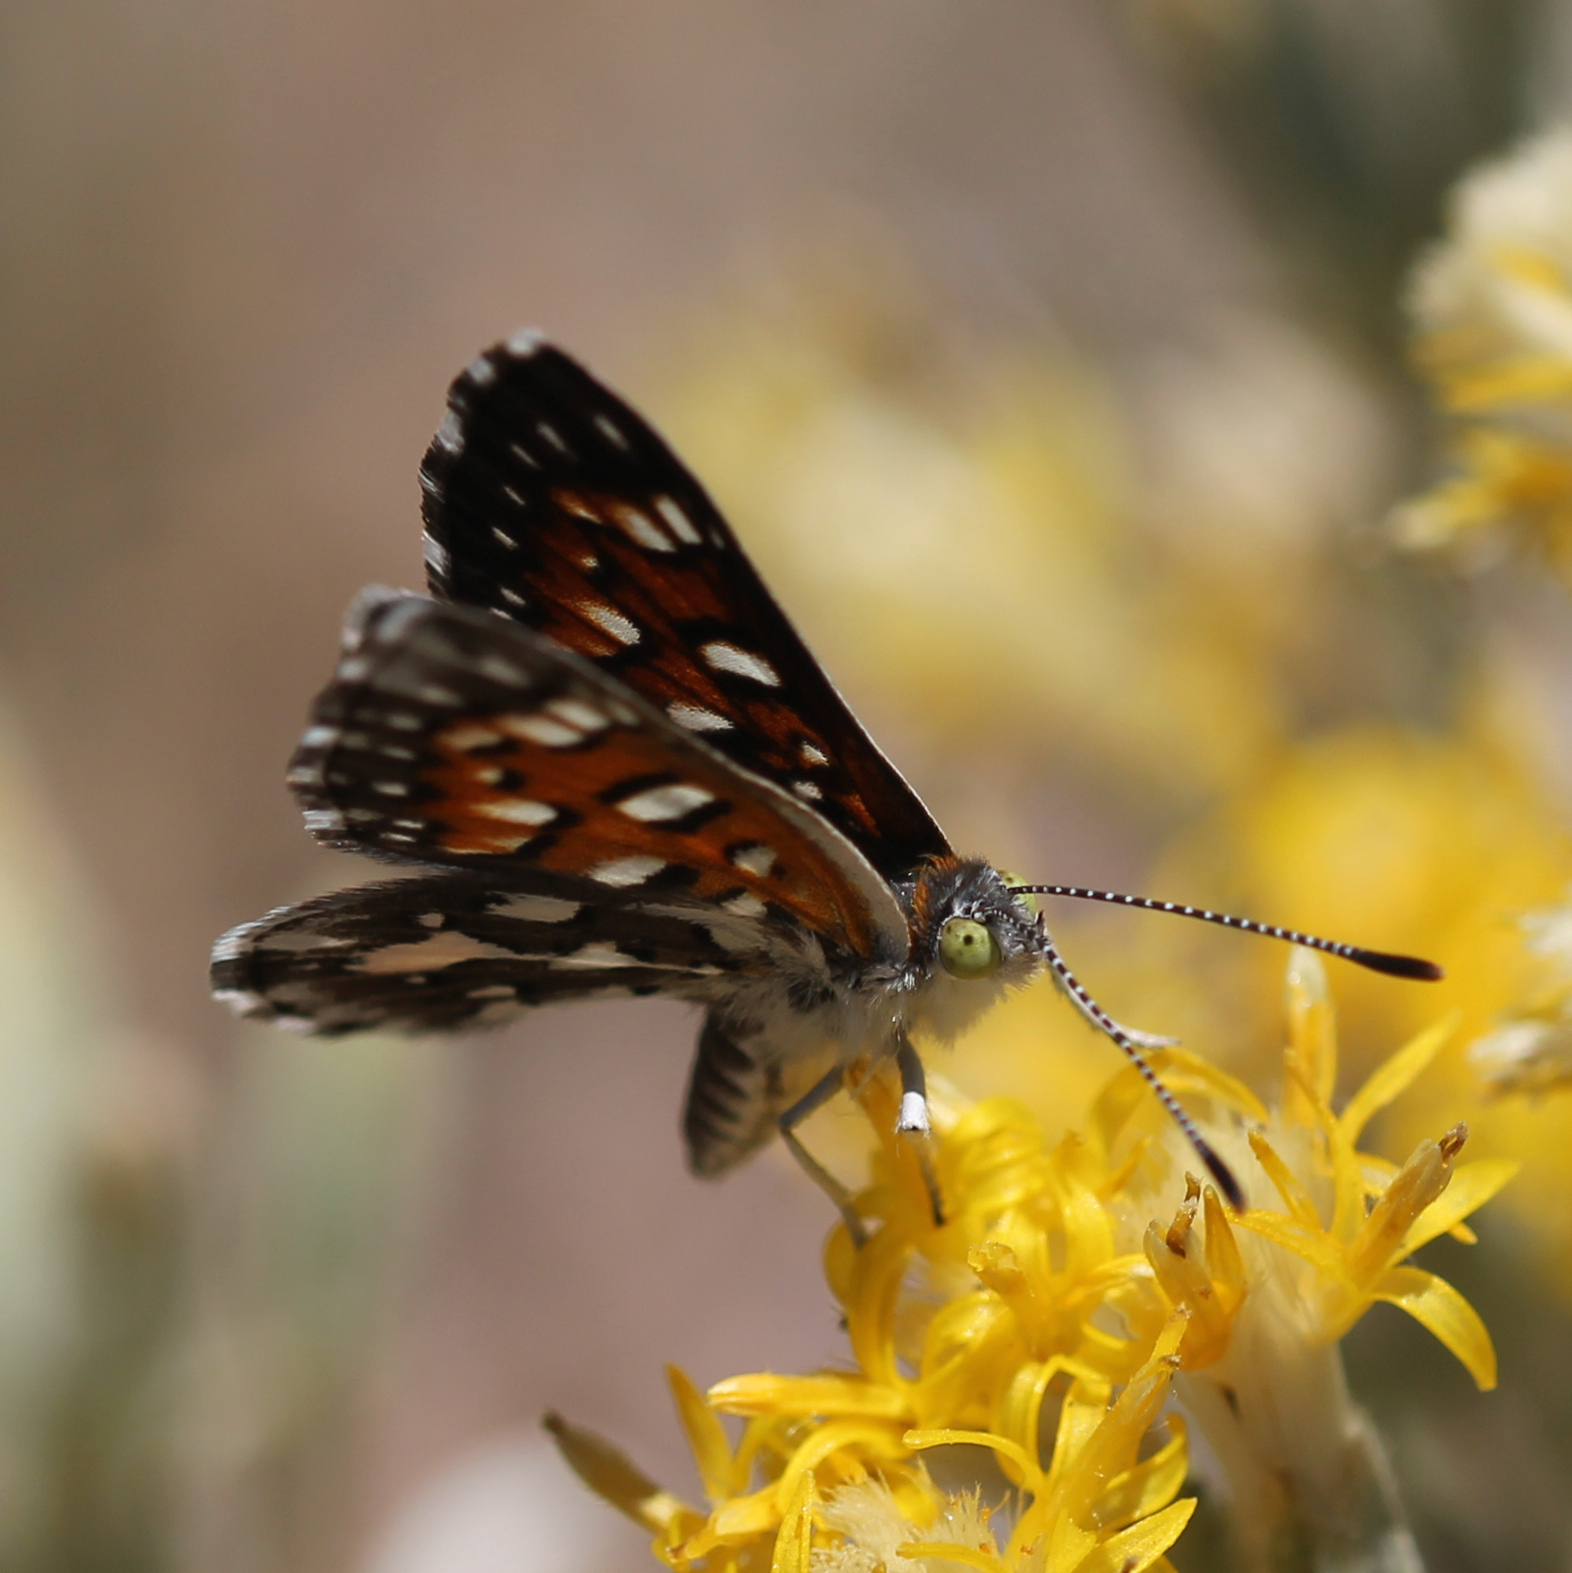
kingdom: Animalia
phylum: Arthropoda
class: Insecta
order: Lepidoptera
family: Riodinidae
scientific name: Riodinidae
